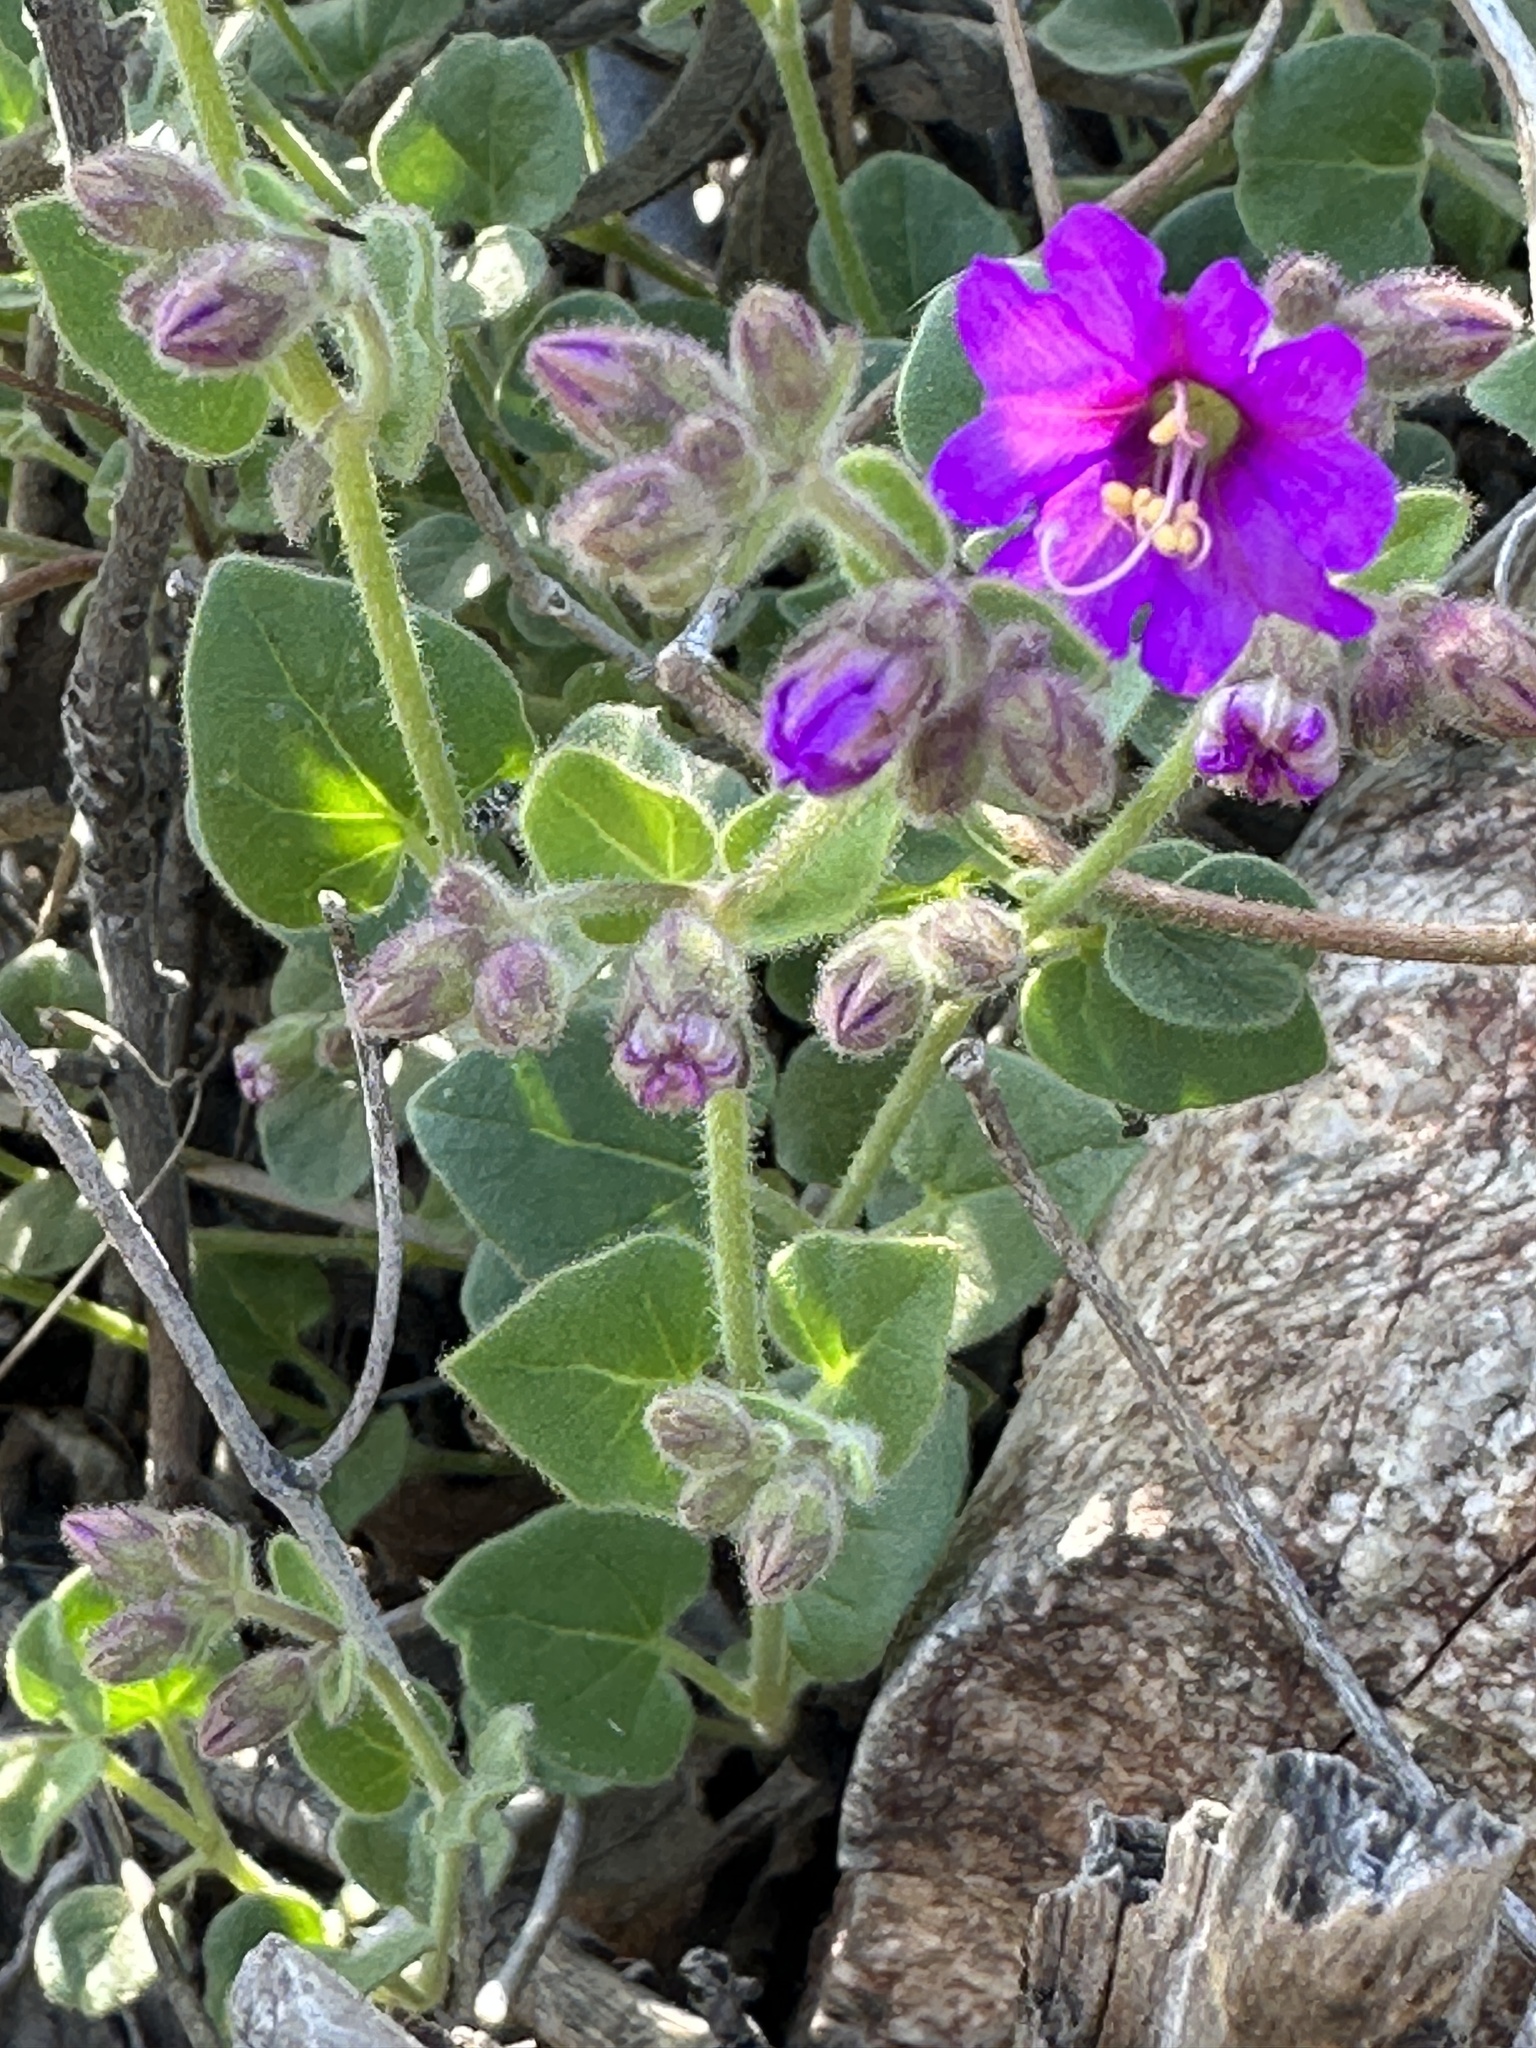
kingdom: Plantae
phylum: Tracheophyta
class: Magnoliopsida
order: Caryophyllales
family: Nyctaginaceae
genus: Mirabilis
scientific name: Mirabilis laevis
